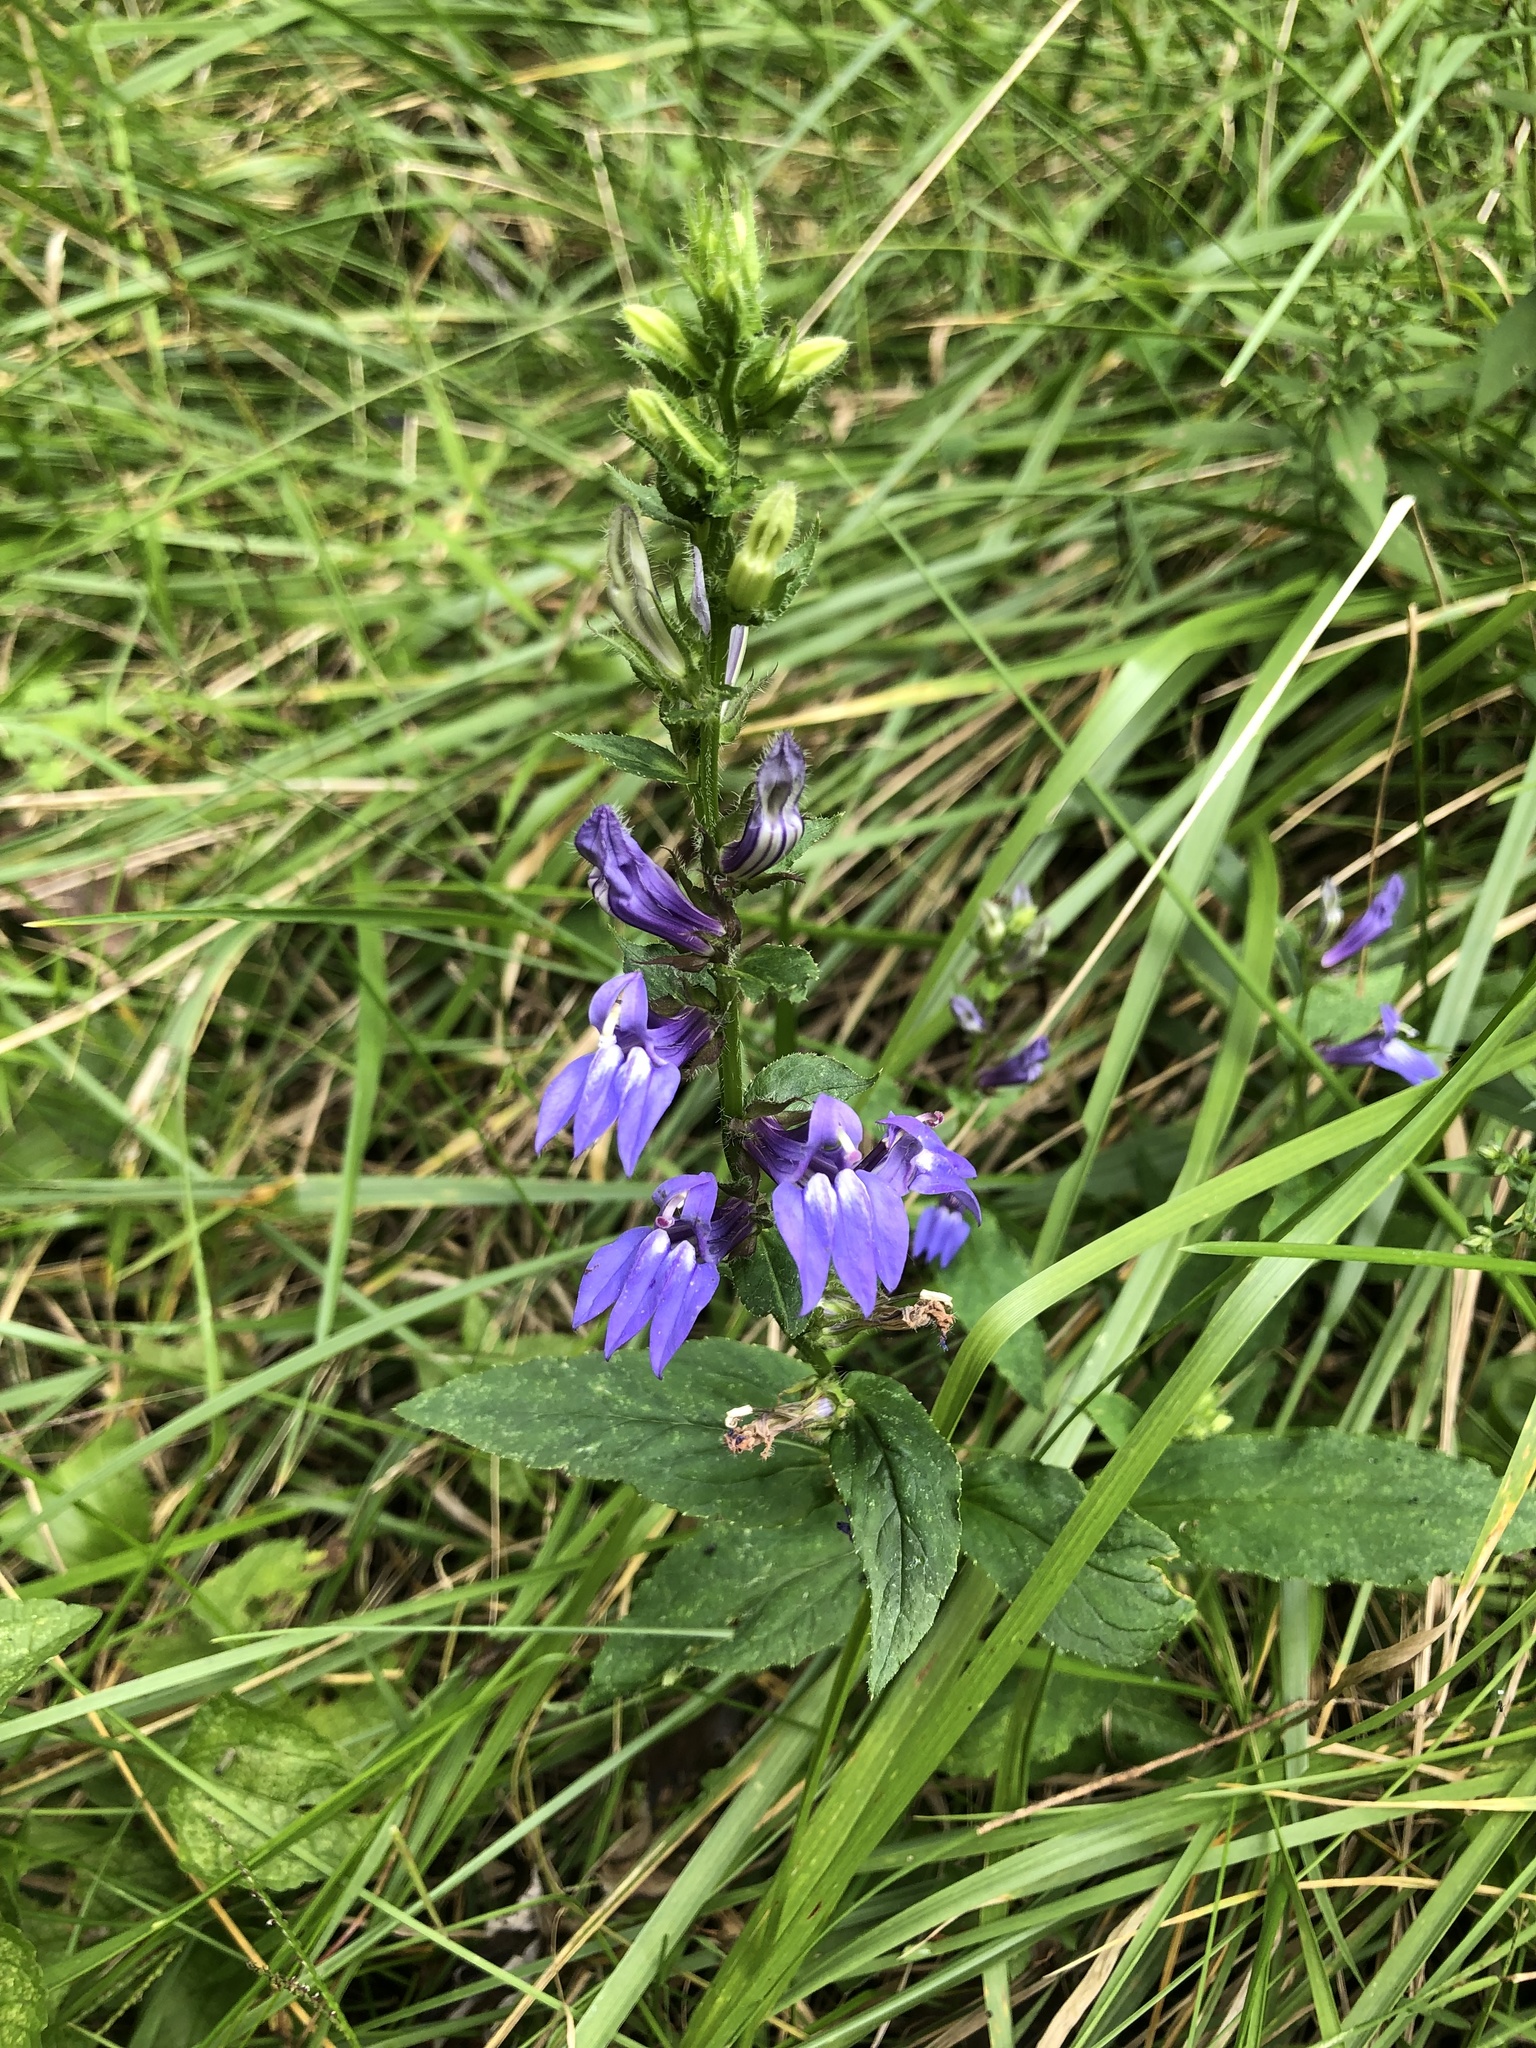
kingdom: Plantae
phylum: Tracheophyta
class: Magnoliopsida
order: Asterales
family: Campanulaceae
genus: Lobelia
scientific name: Lobelia siphilitica
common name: Great lobelia
